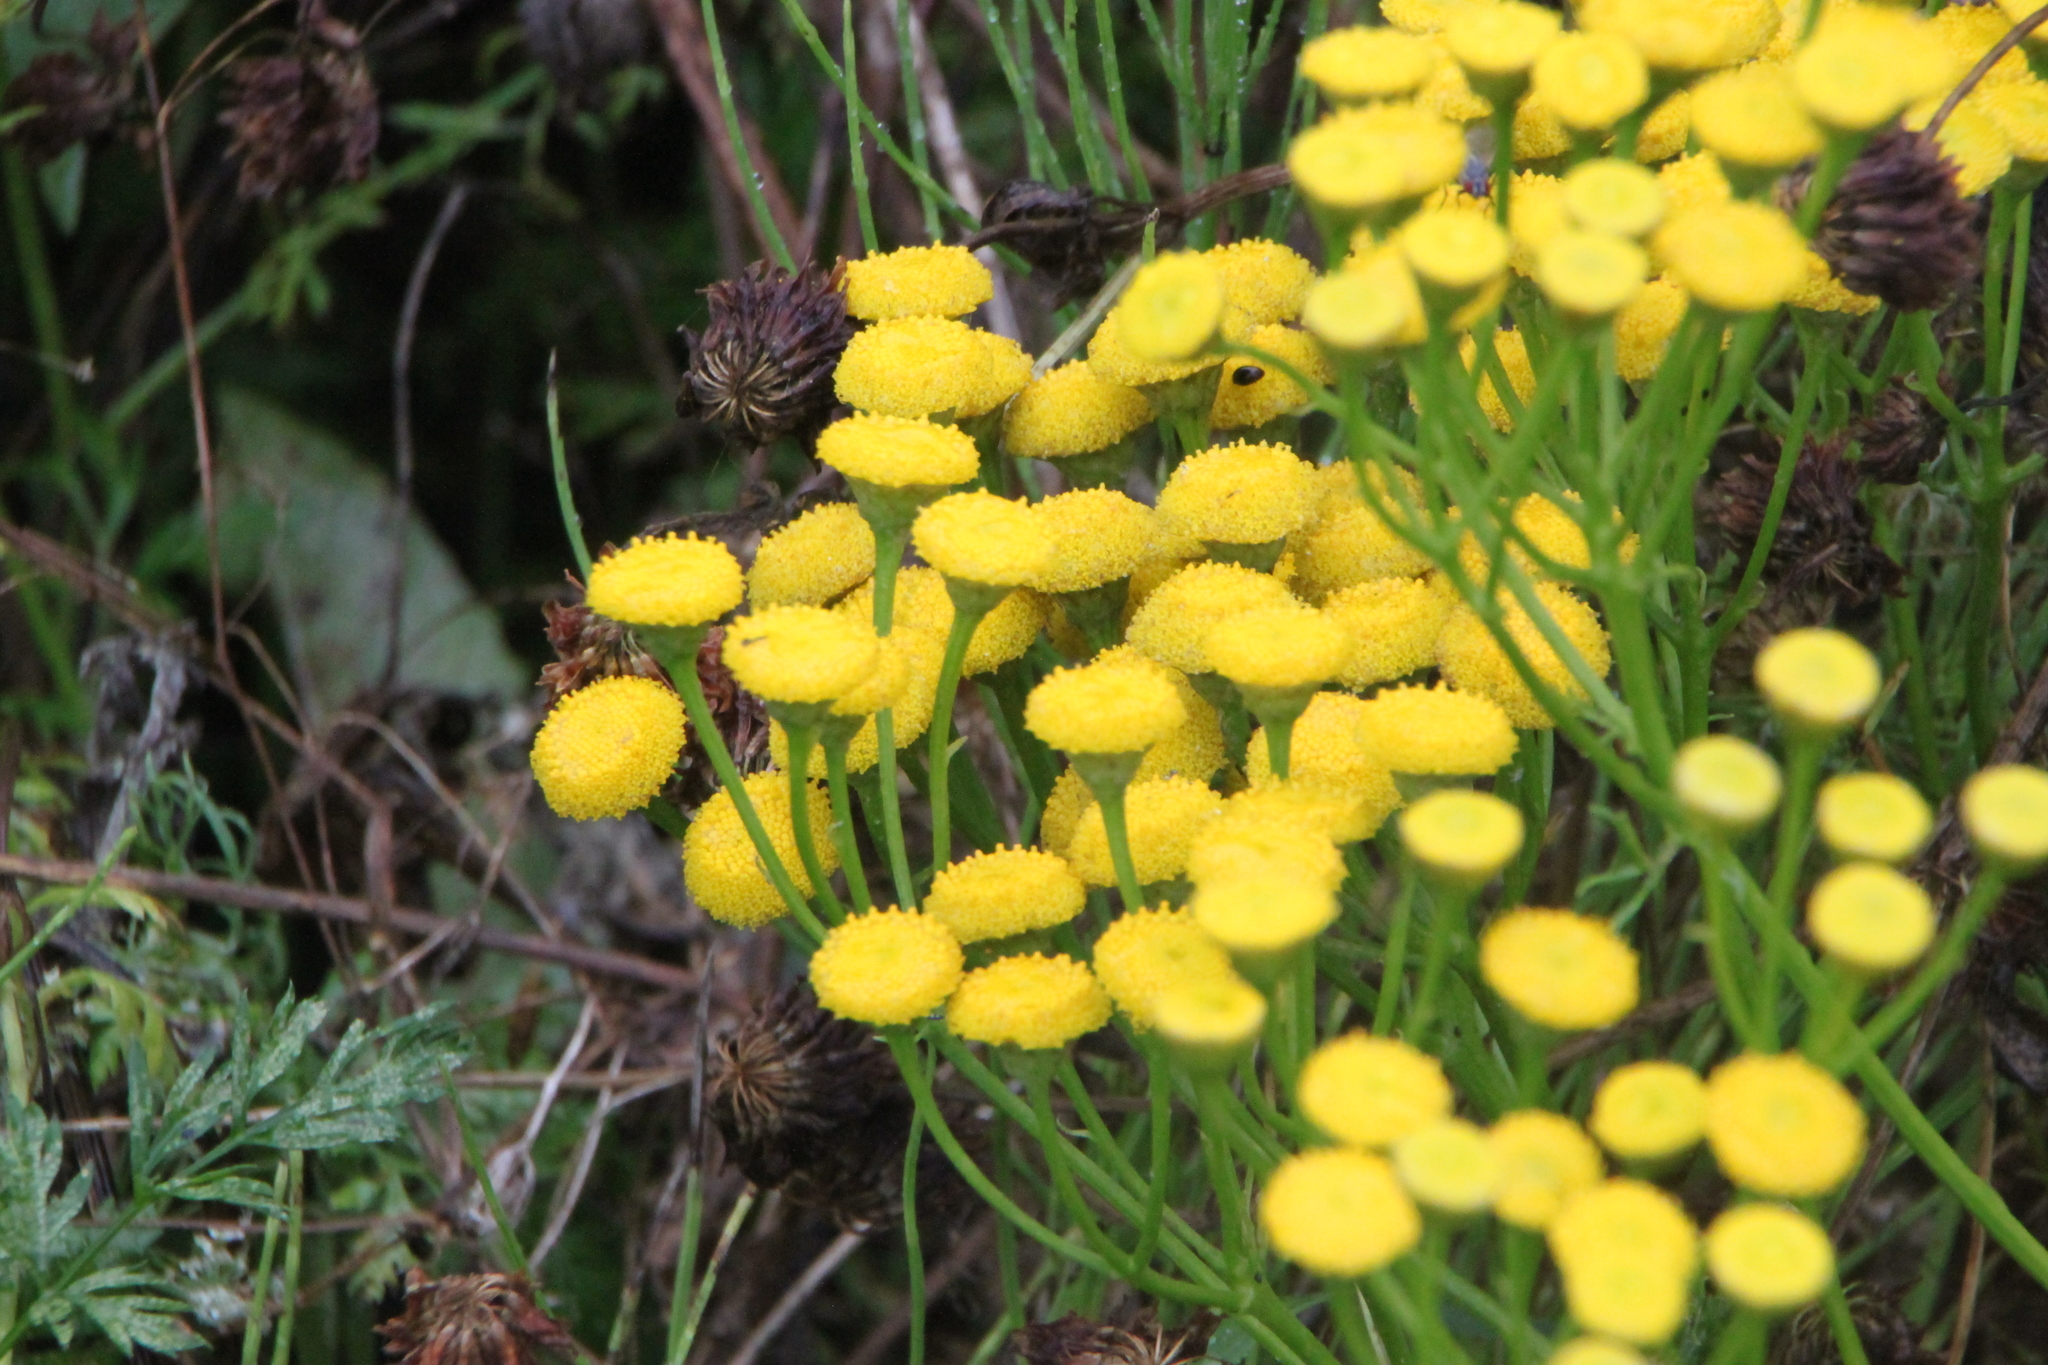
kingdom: Plantae
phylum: Tracheophyta
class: Magnoliopsida
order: Asterales
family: Asteraceae
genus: Tanacetum
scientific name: Tanacetum vulgare
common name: Common tansy
